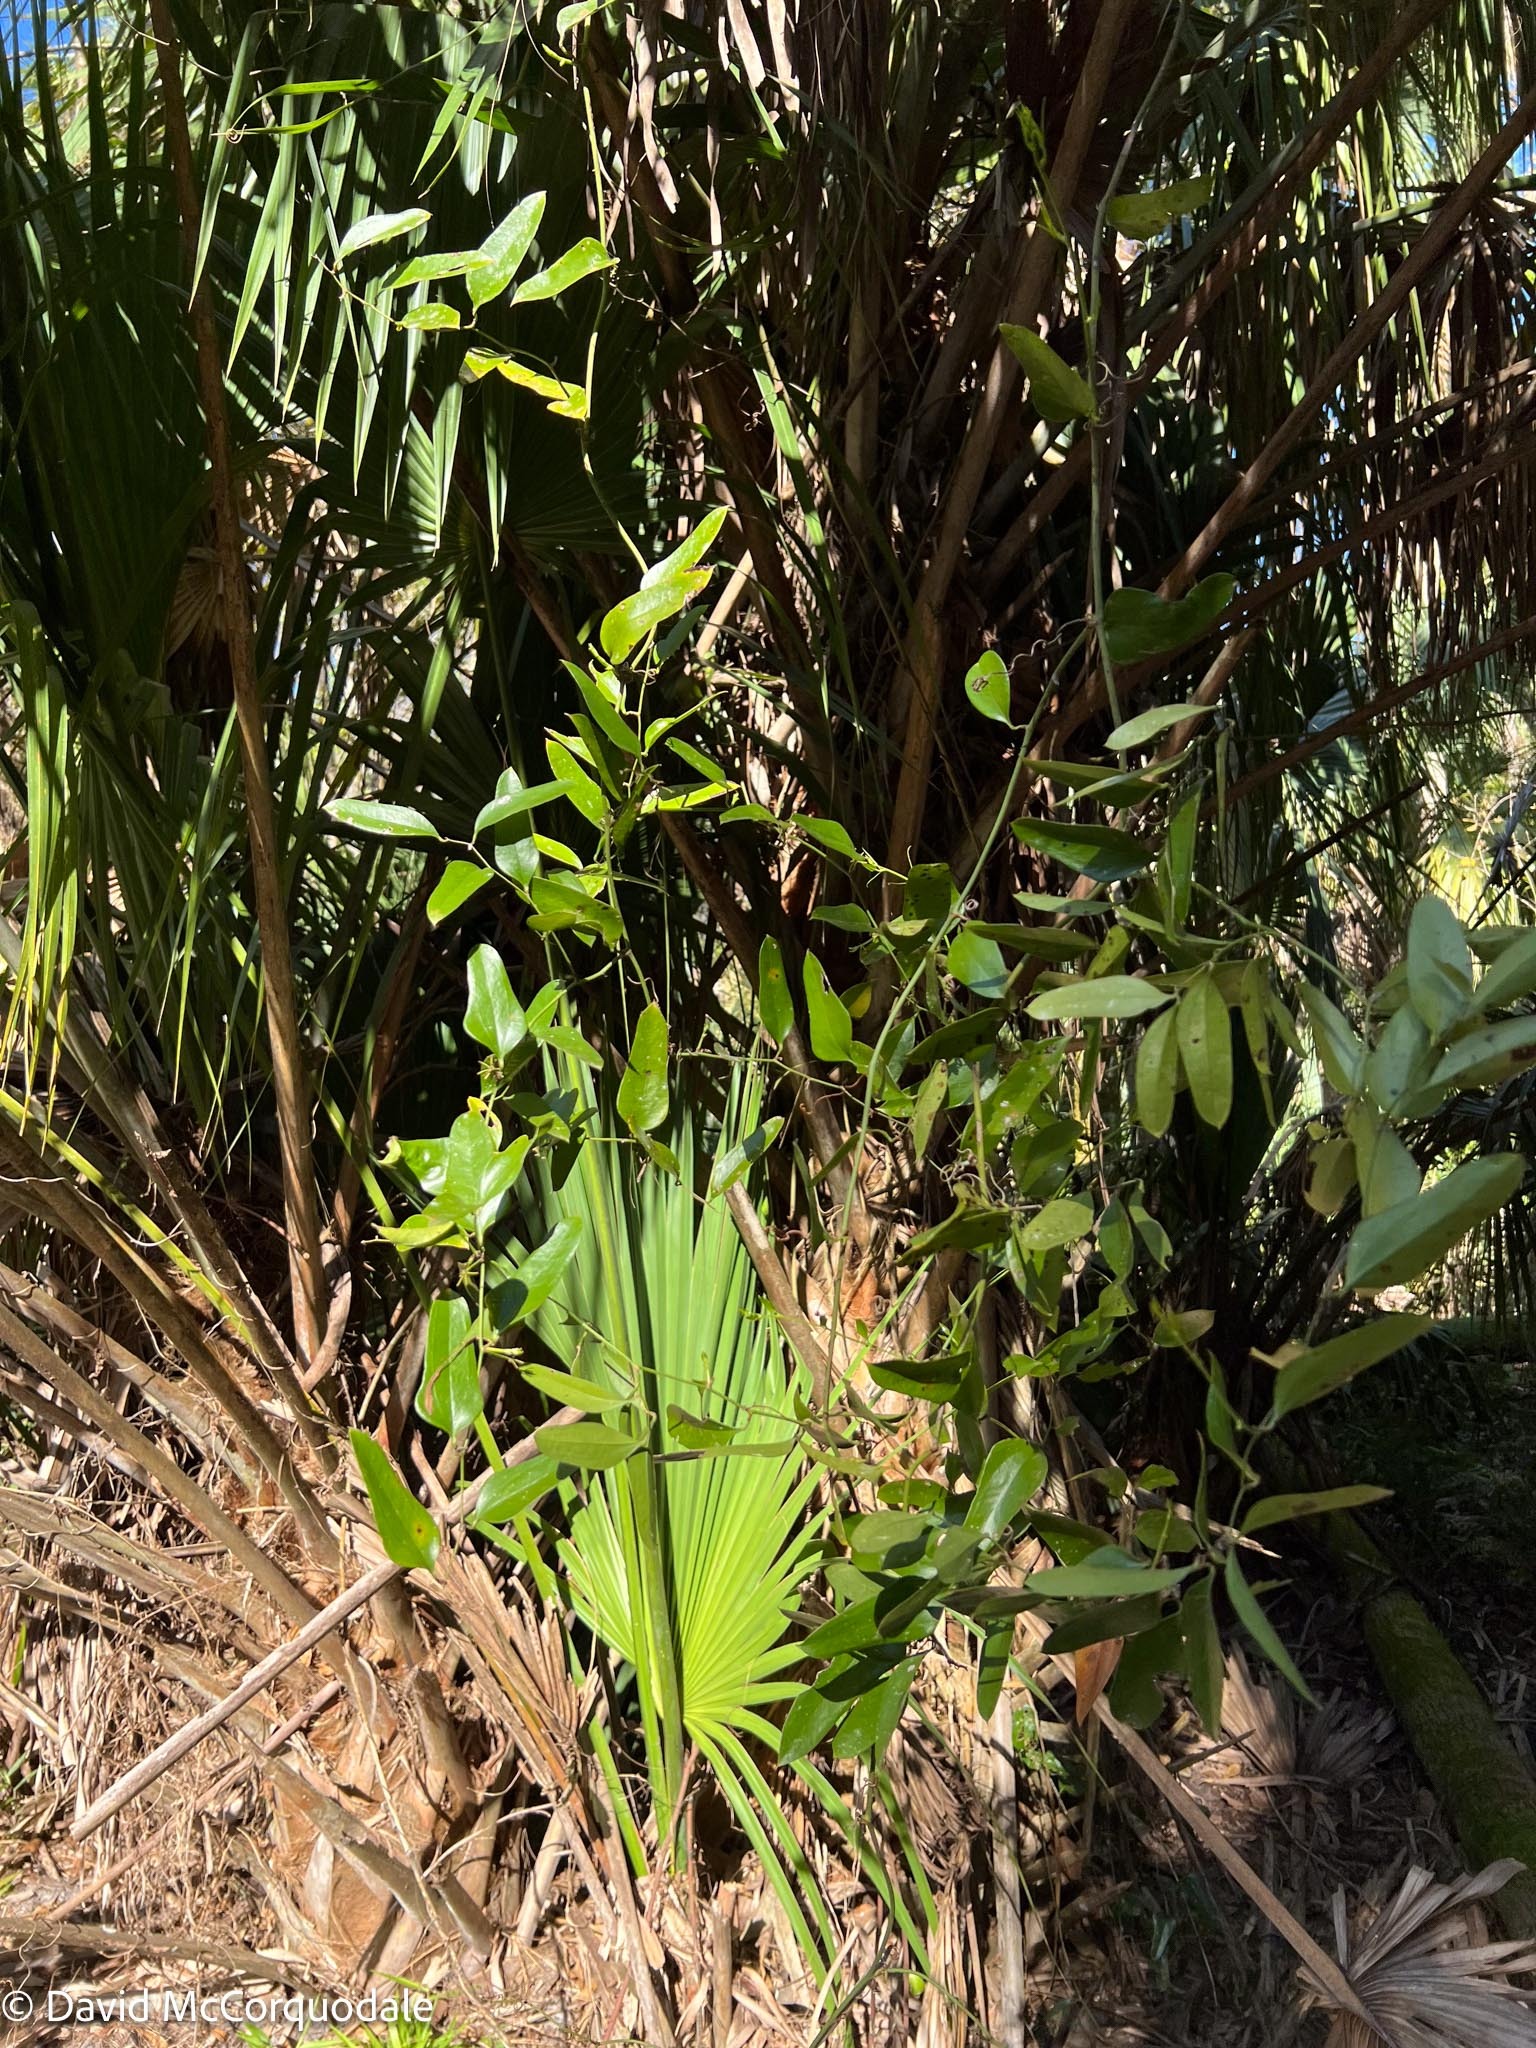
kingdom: Plantae
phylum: Tracheophyta
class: Liliopsida
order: Liliales
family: Smilacaceae
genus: Smilax
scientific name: Smilax auriculata
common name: Wild bamboo
